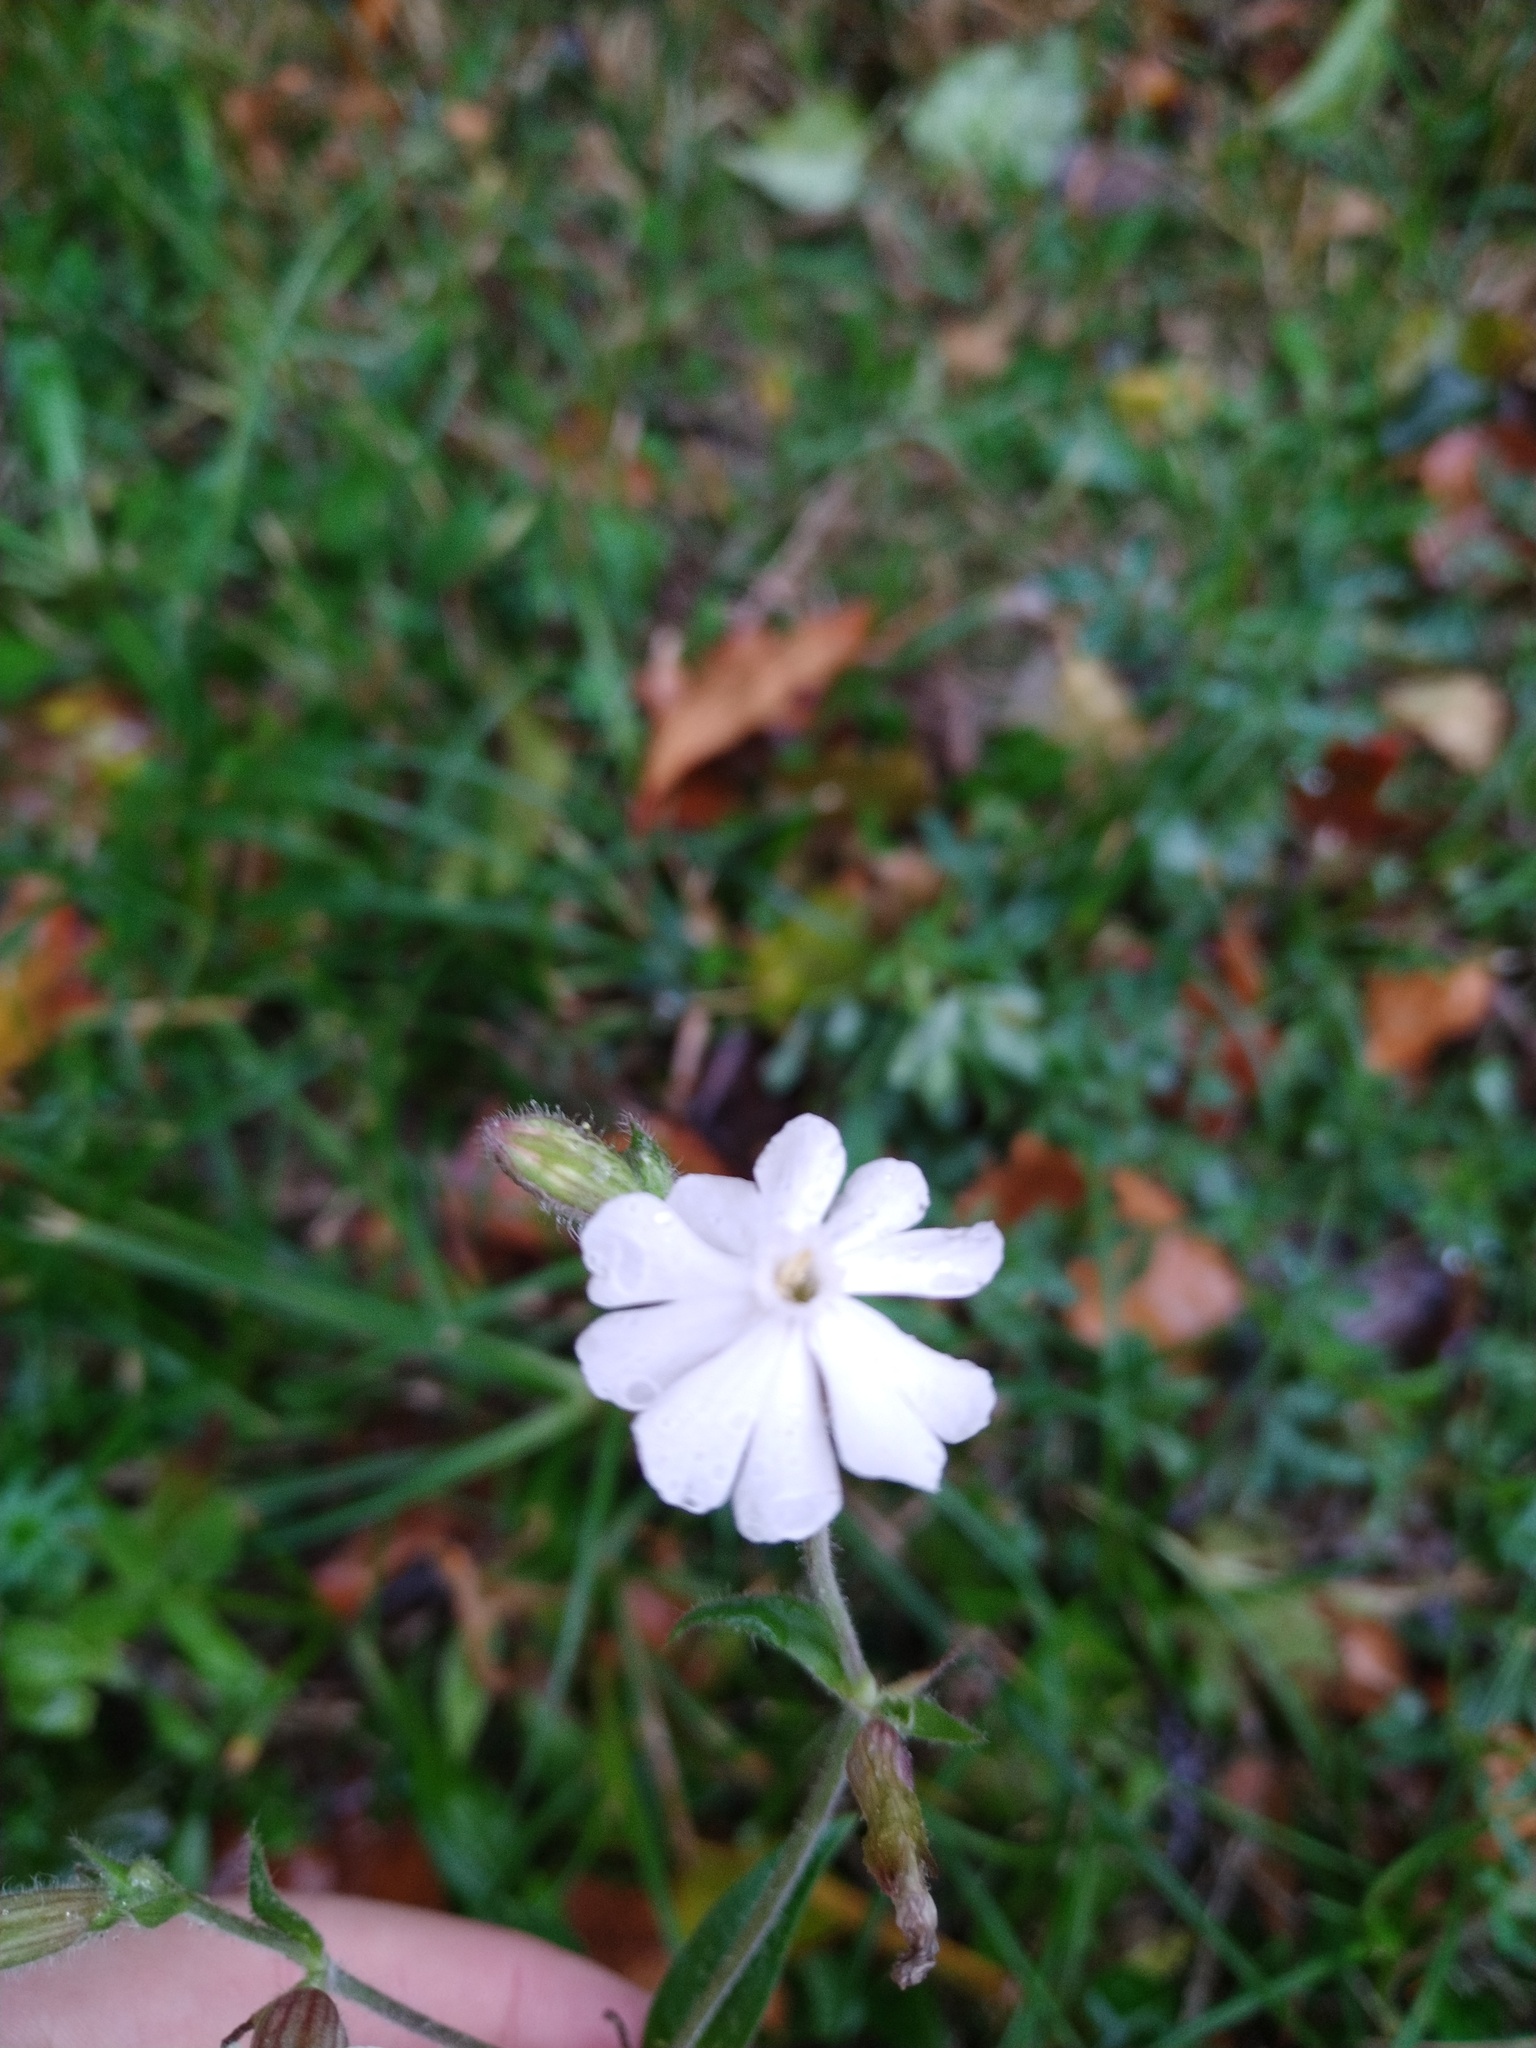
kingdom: Plantae
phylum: Tracheophyta
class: Magnoliopsida
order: Caryophyllales
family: Caryophyllaceae
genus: Silene
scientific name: Silene latifolia
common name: White campion
